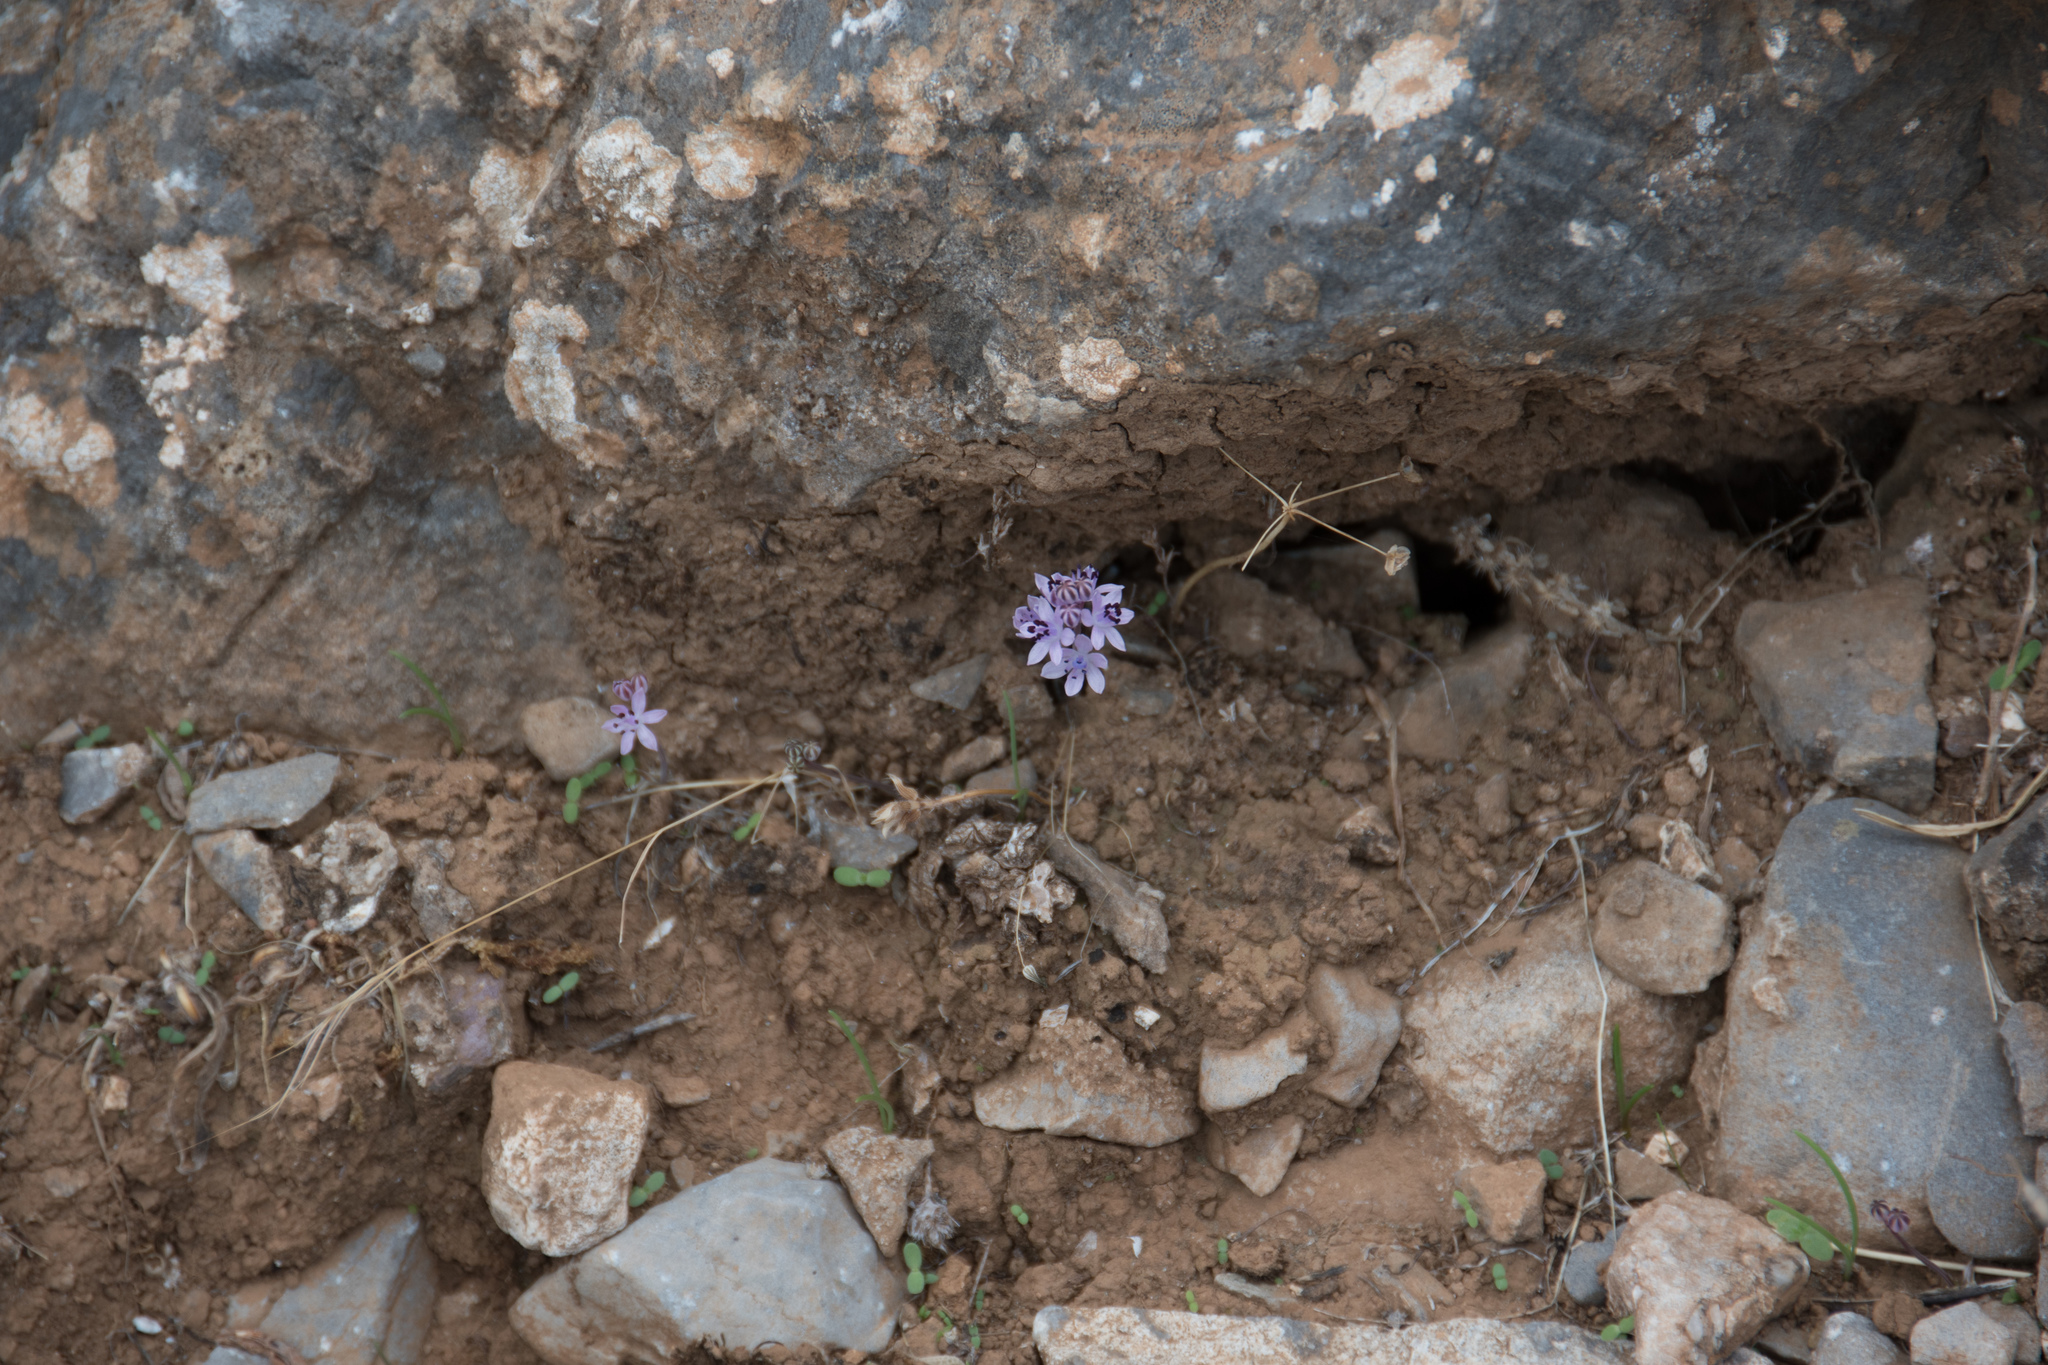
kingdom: Plantae
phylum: Tracheophyta
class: Liliopsida
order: Asparagales
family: Asparagaceae
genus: Prospero
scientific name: Prospero autumnale
